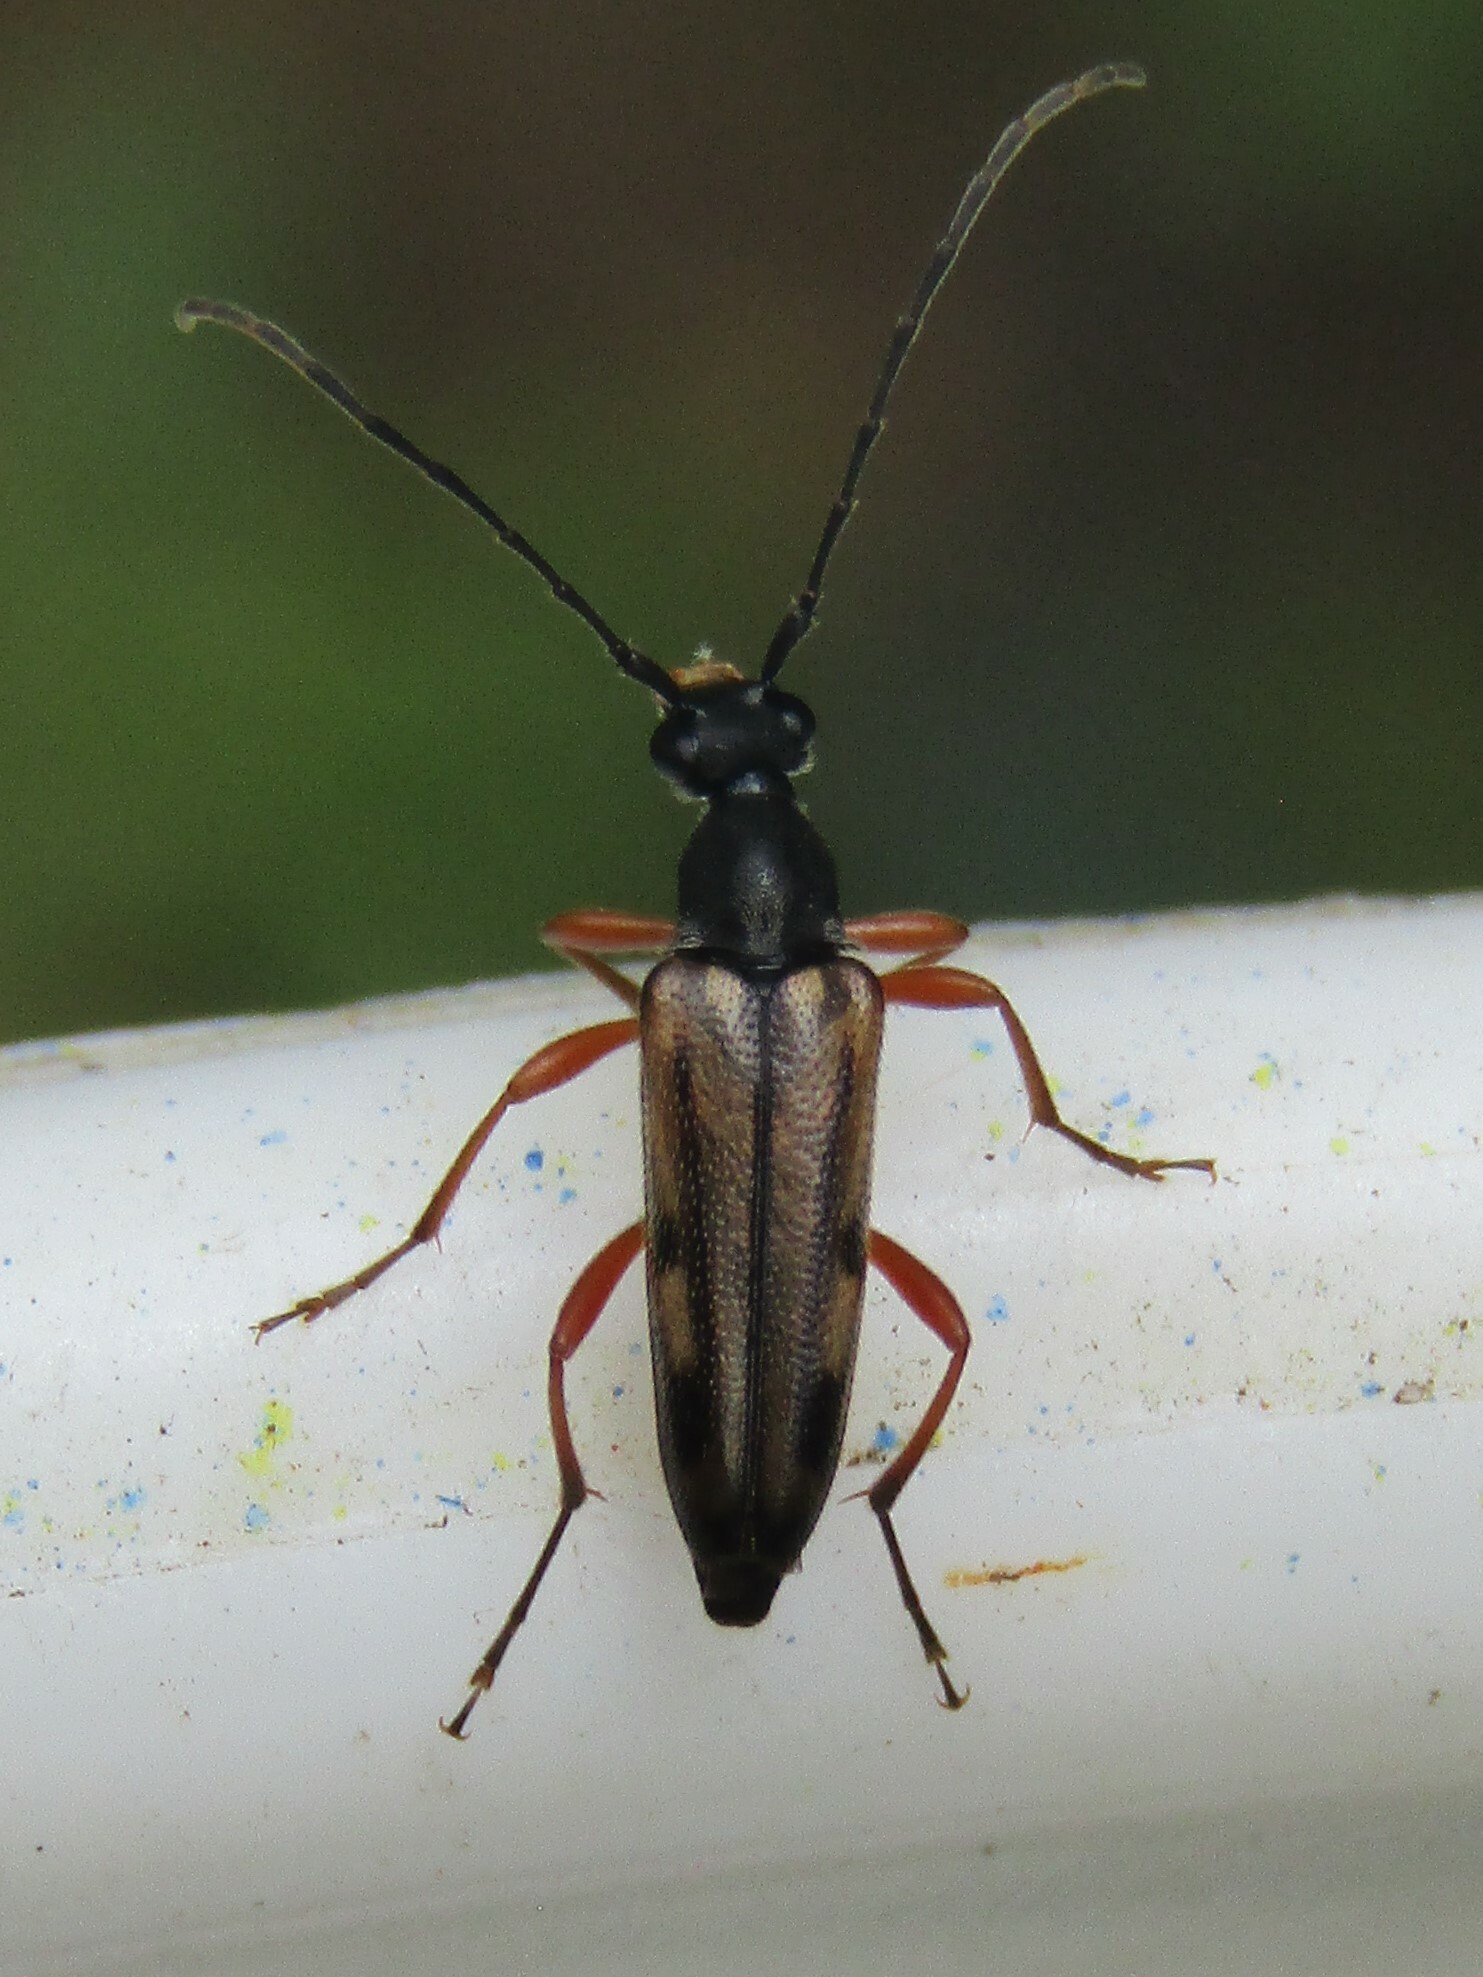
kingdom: Animalia
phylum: Arthropoda
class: Insecta
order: Coleoptera
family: Cerambycidae
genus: Analeptura
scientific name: Analeptura lineola
